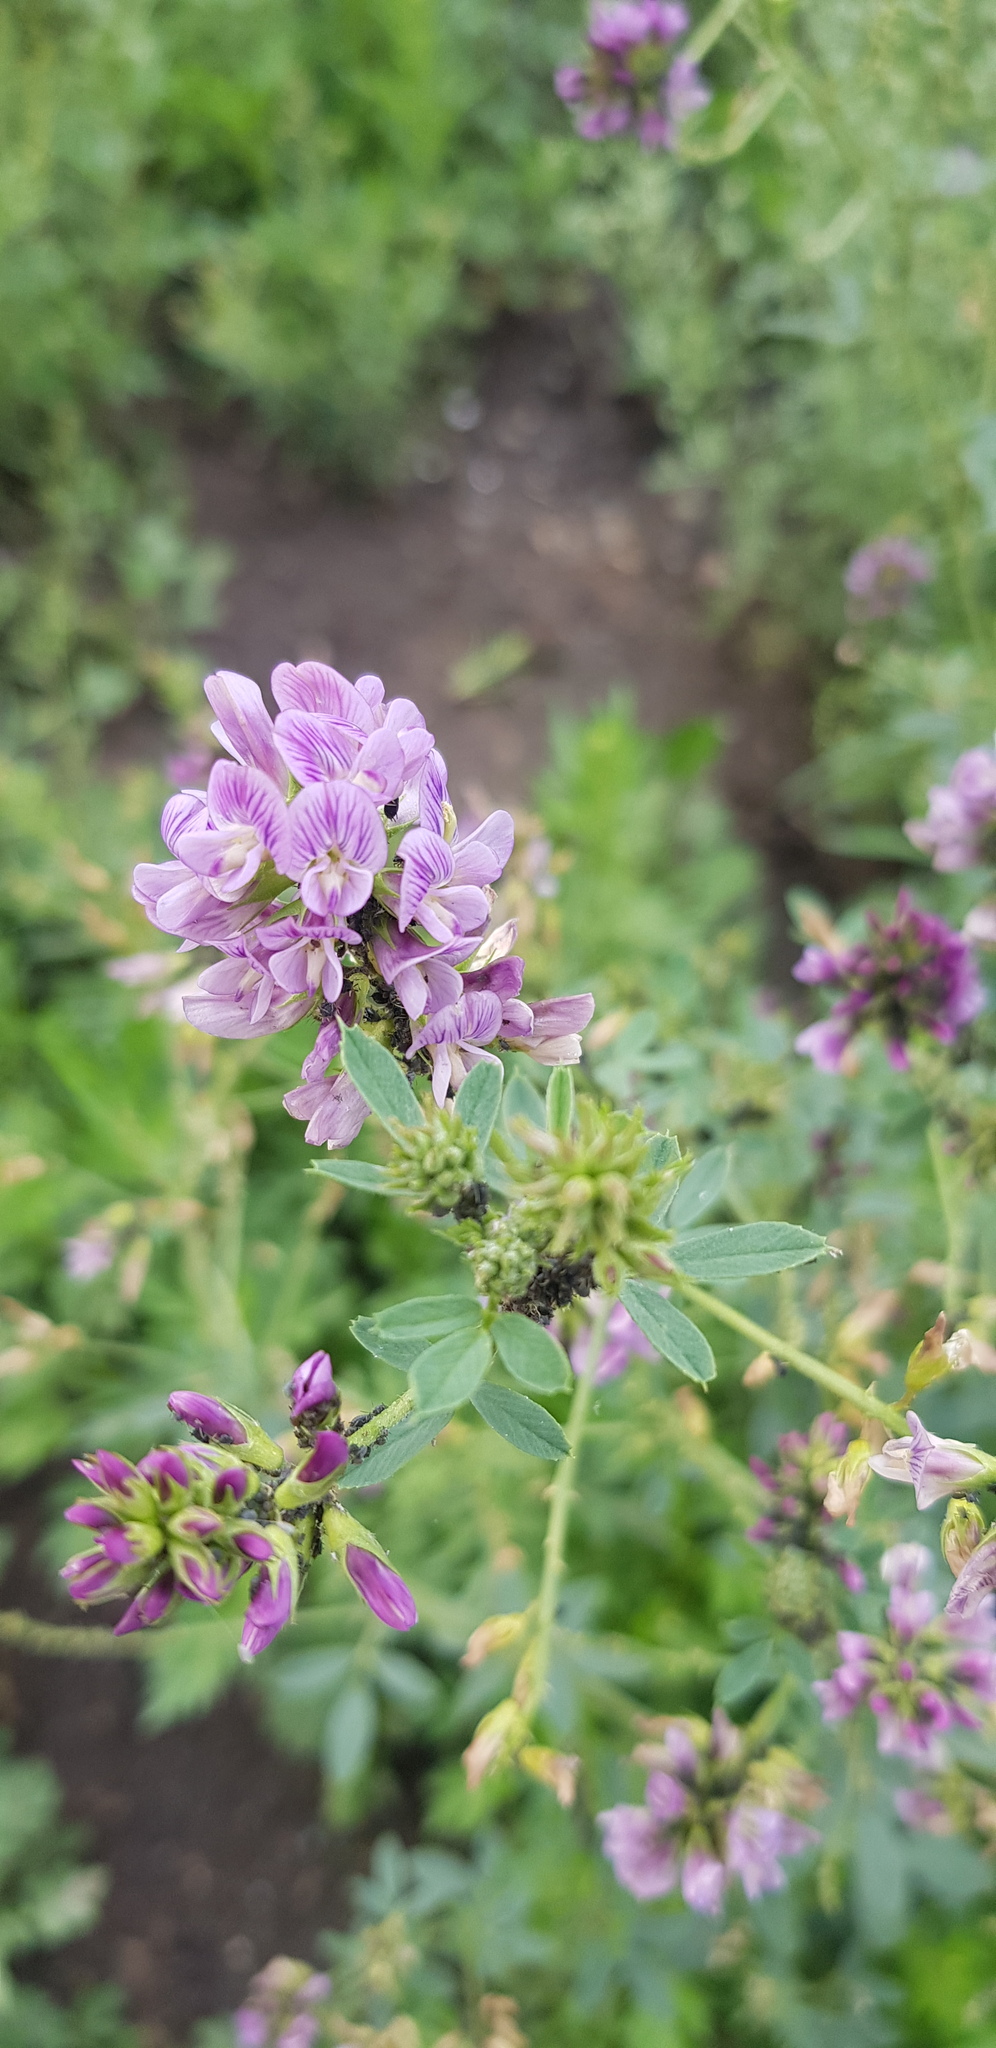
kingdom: Plantae
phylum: Tracheophyta
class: Magnoliopsida
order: Fabales
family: Fabaceae
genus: Medicago
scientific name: Medicago sativa
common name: Alfalfa
